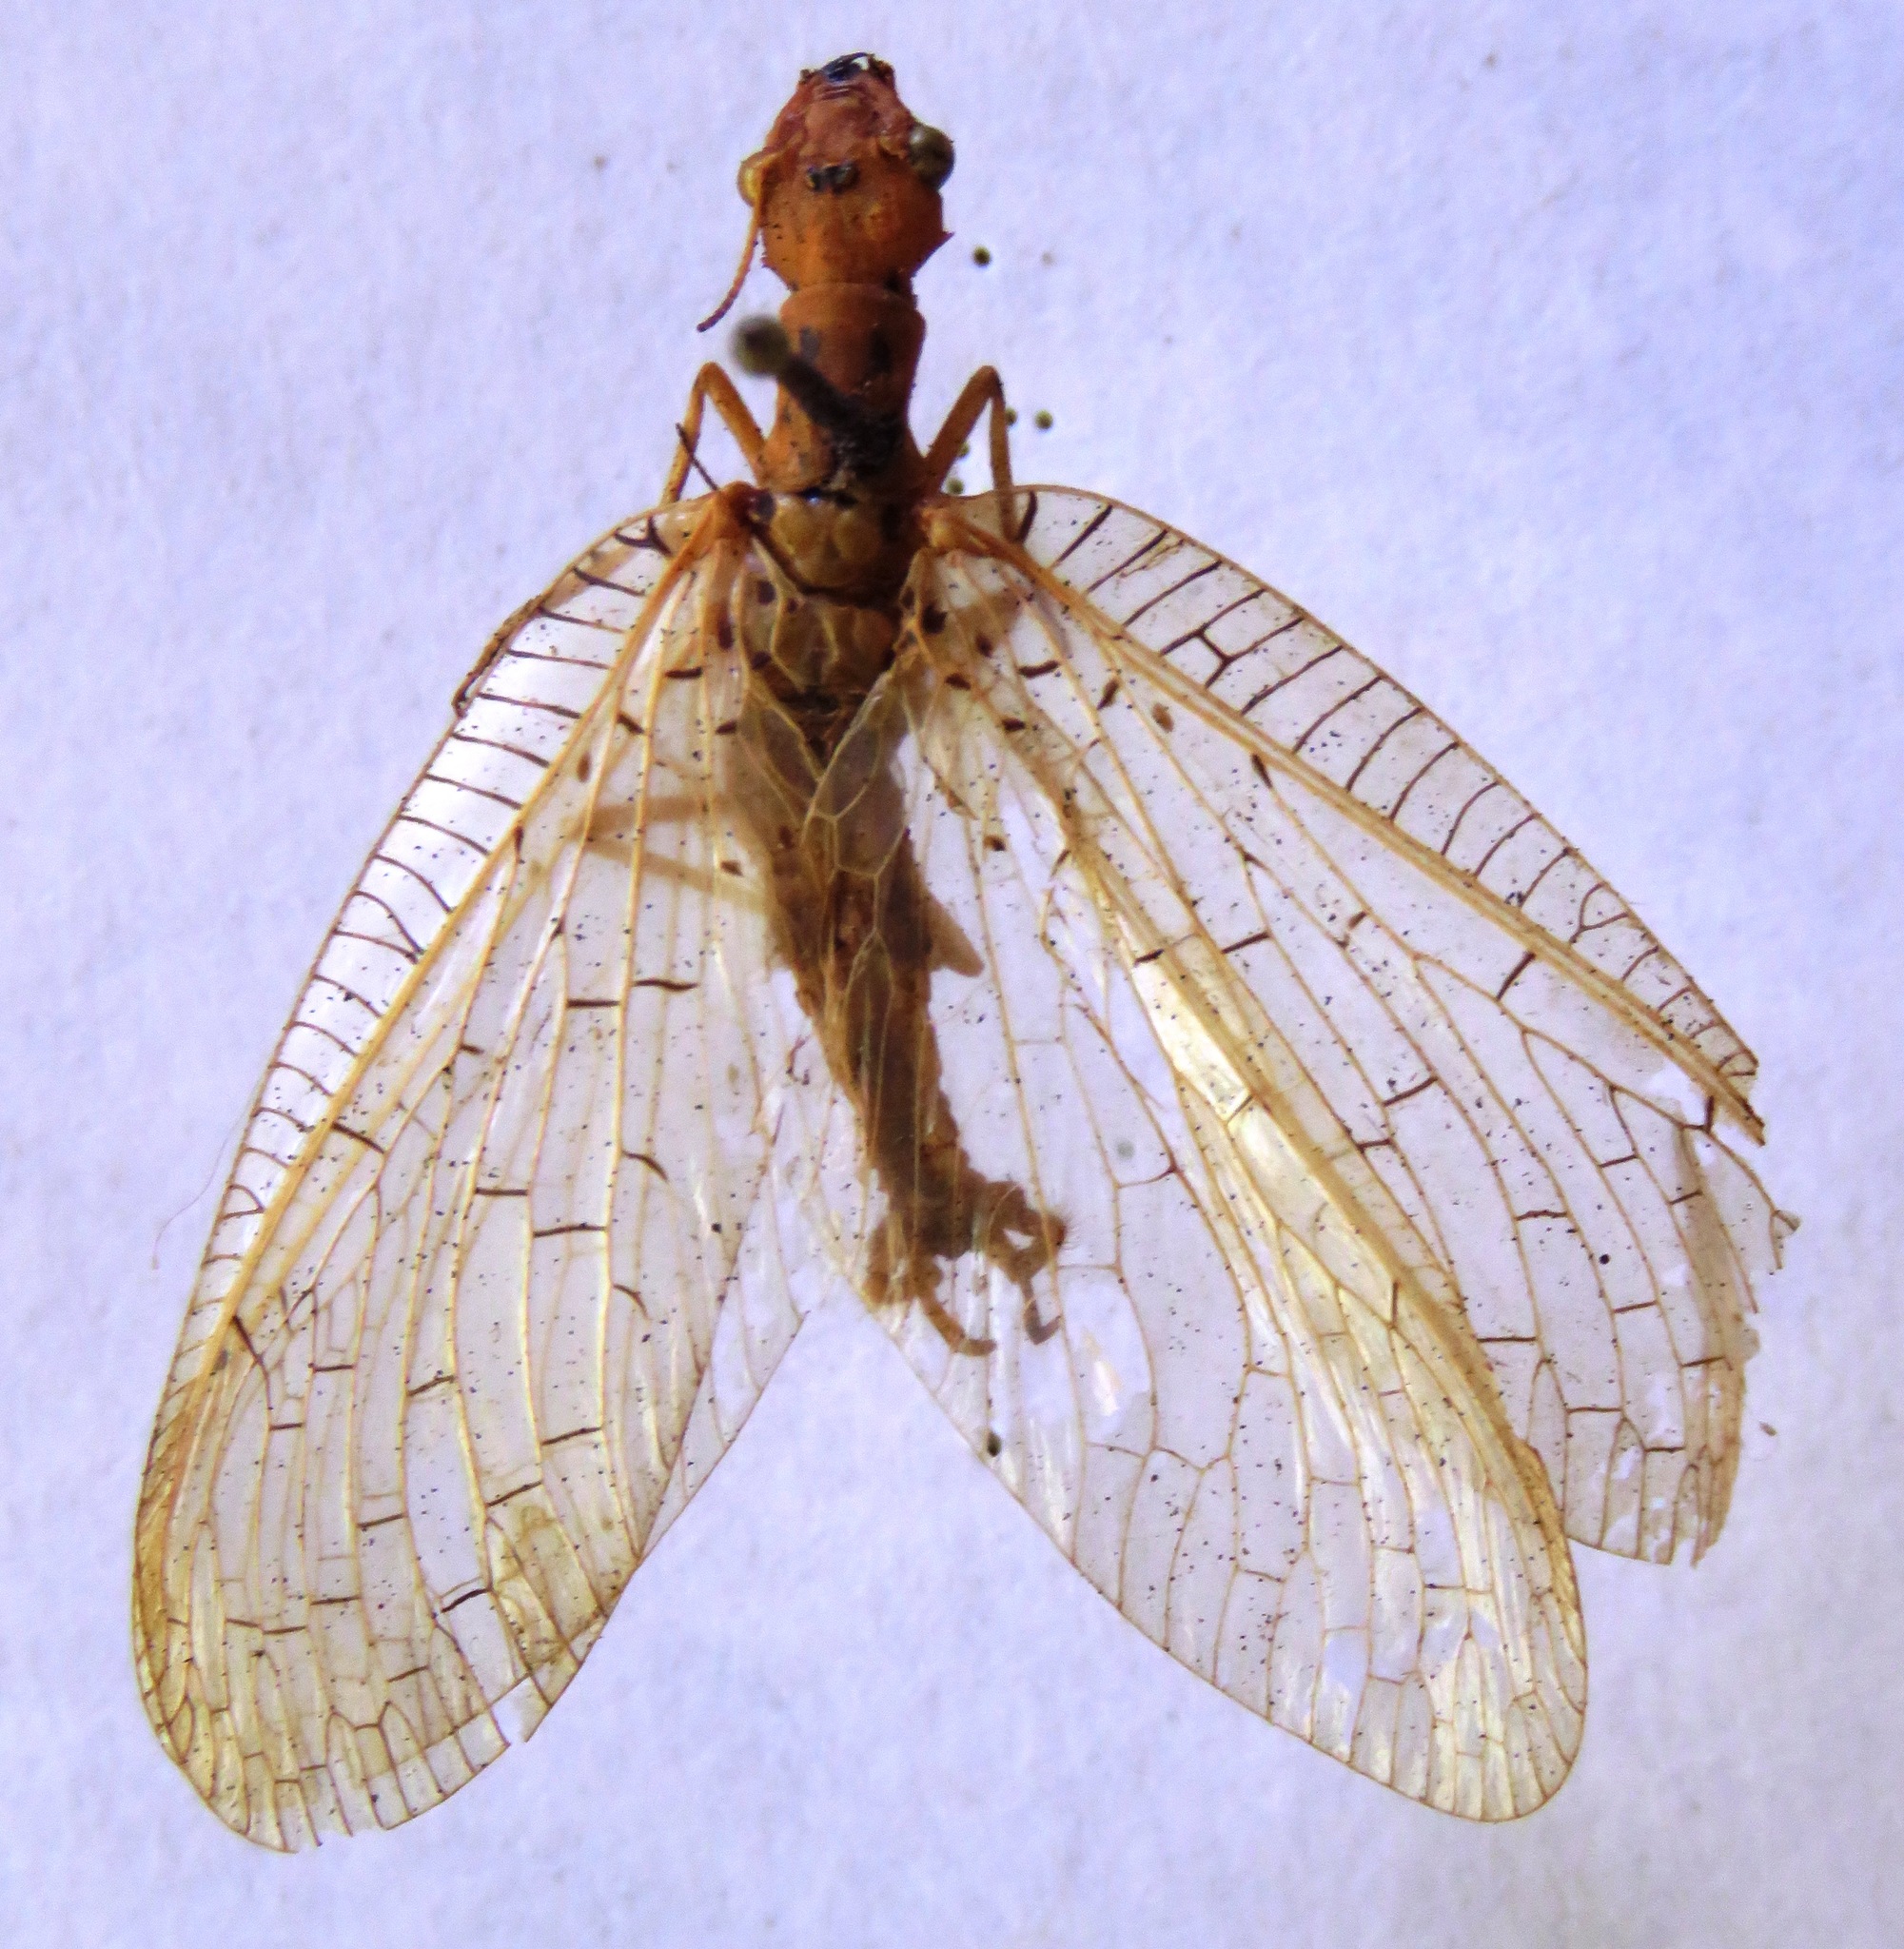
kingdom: Animalia
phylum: Arthropoda
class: Insecta
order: Megaloptera
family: Corydalidae
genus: Chloronia
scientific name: Chloronia mexicana
